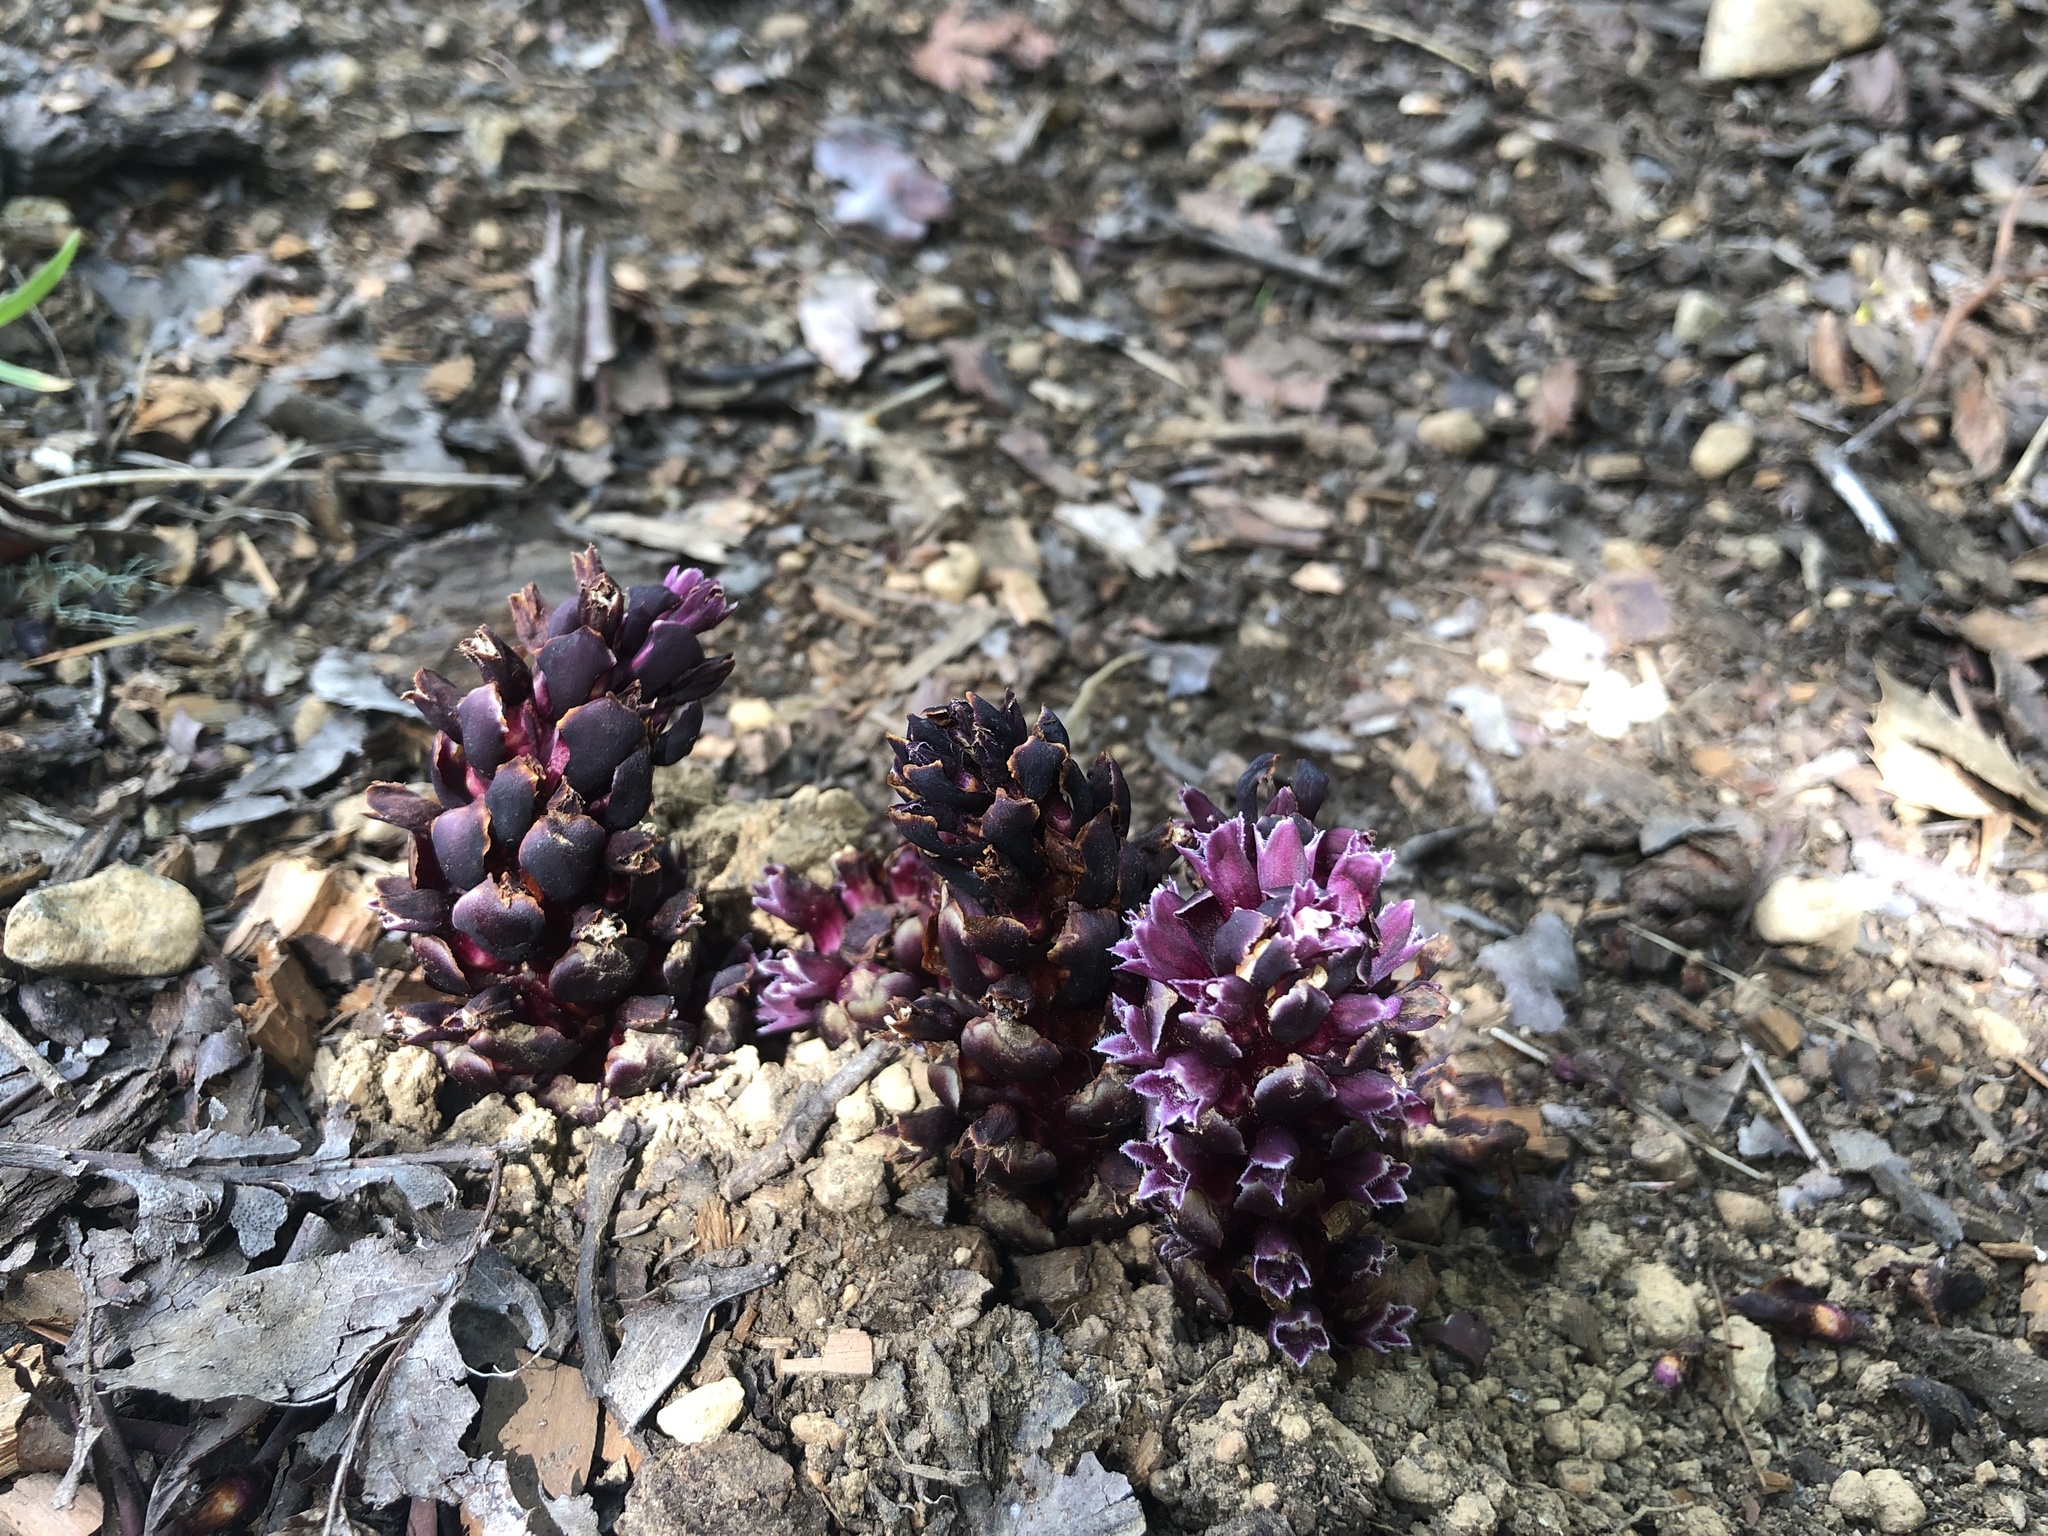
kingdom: Plantae
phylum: Tracheophyta
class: Magnoliopsida
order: Lamiales
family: Orobanchaceae
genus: Kopsiopsis
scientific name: Kopsiopsis hookeri
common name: Hooker's groundcone
